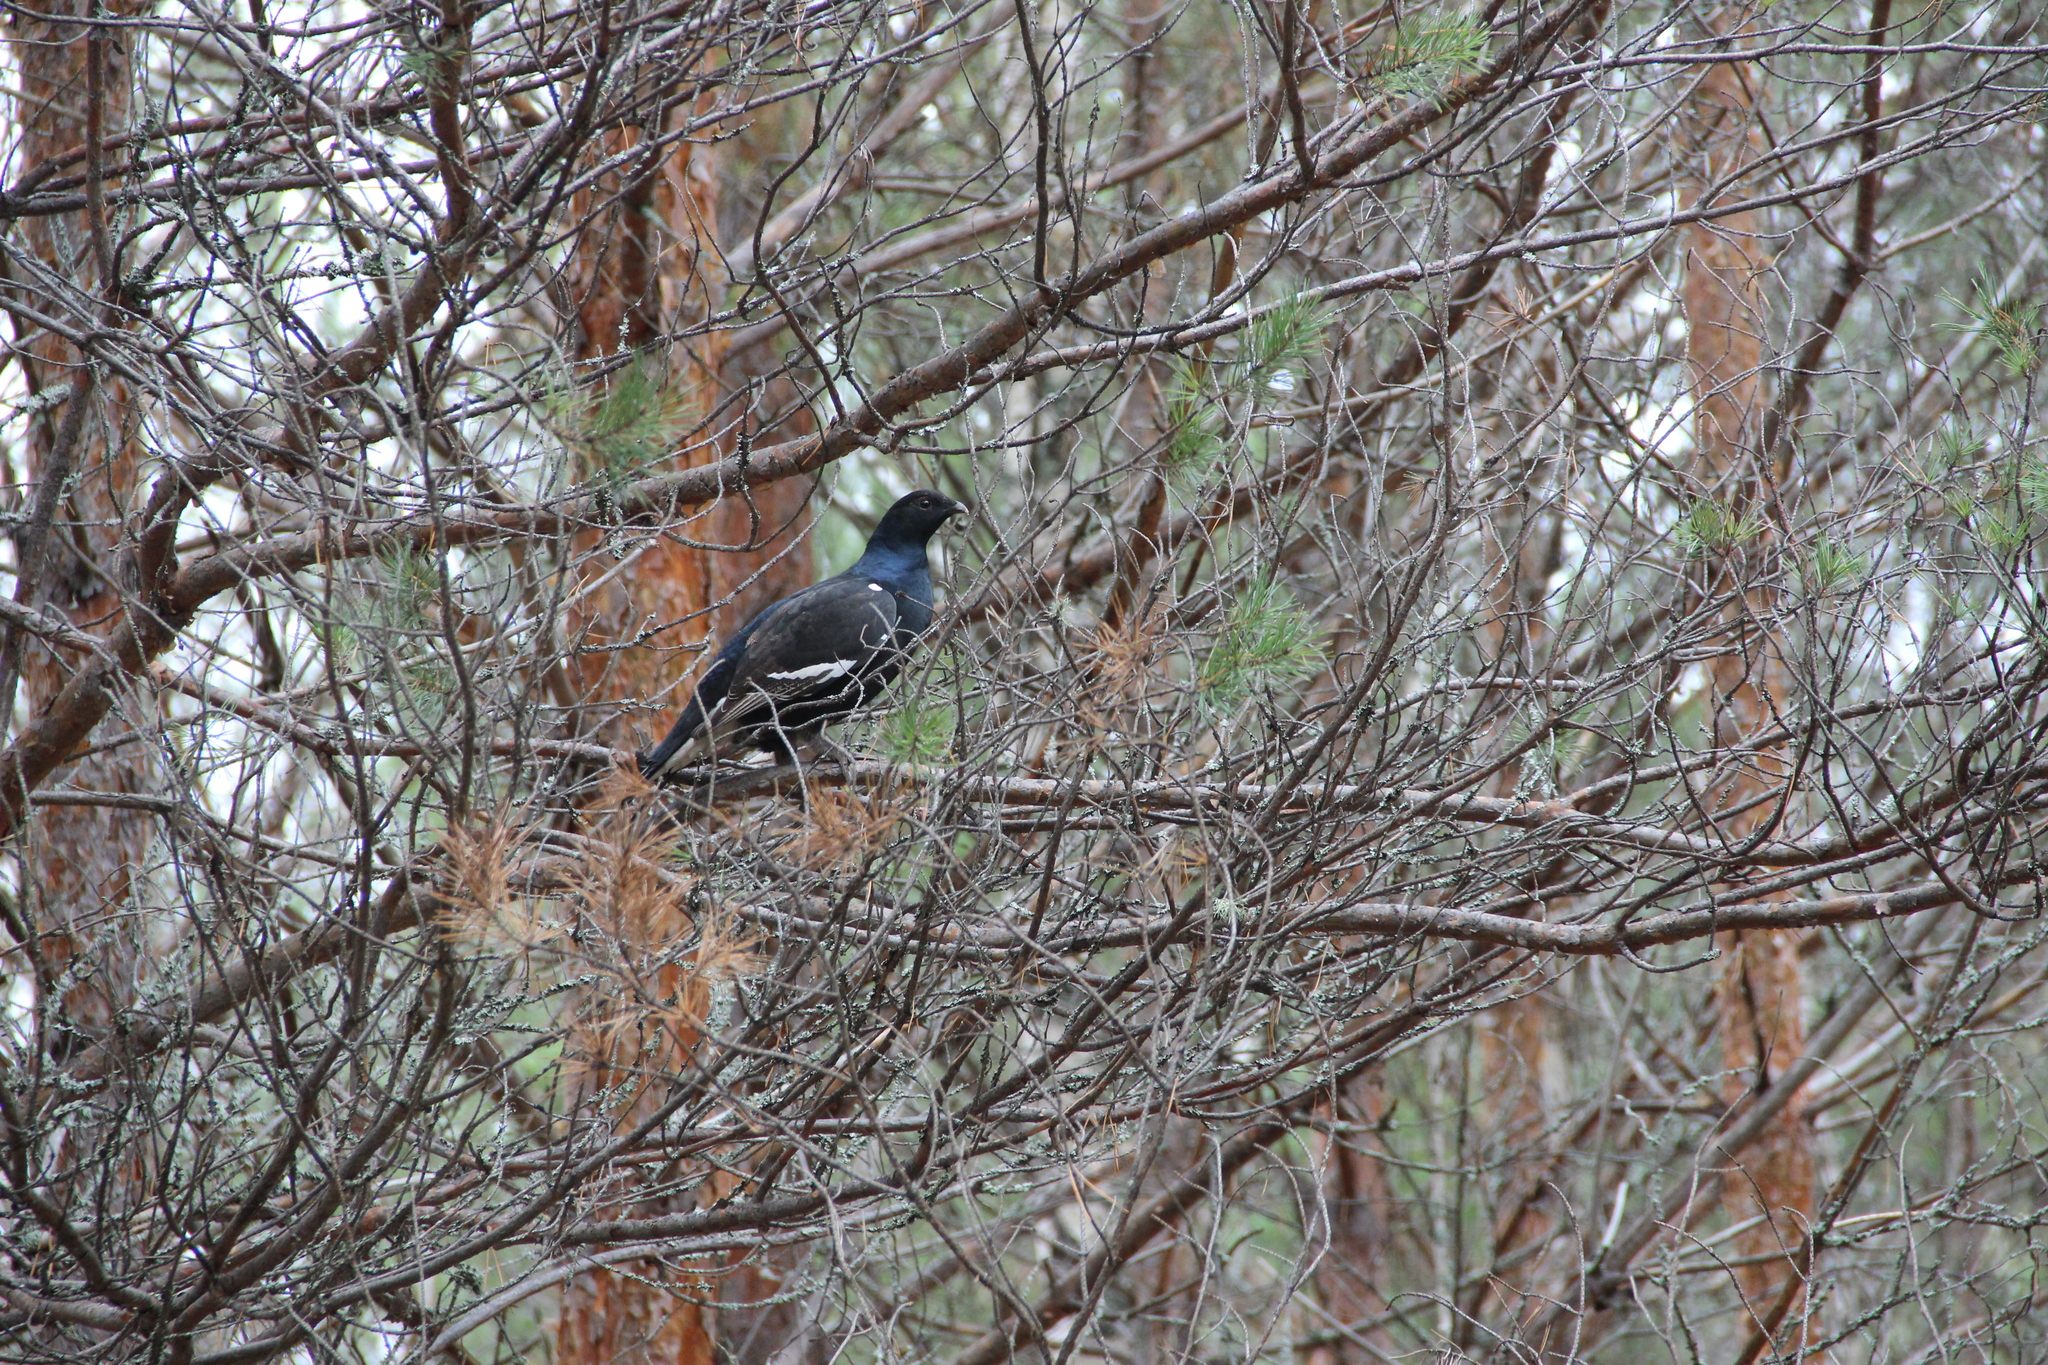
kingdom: Animalia
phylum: Chordata
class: Aves
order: Galliformes
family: Phasianidae
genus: Lyrurus
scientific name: Lyrurus tetrix
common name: Black grouse
